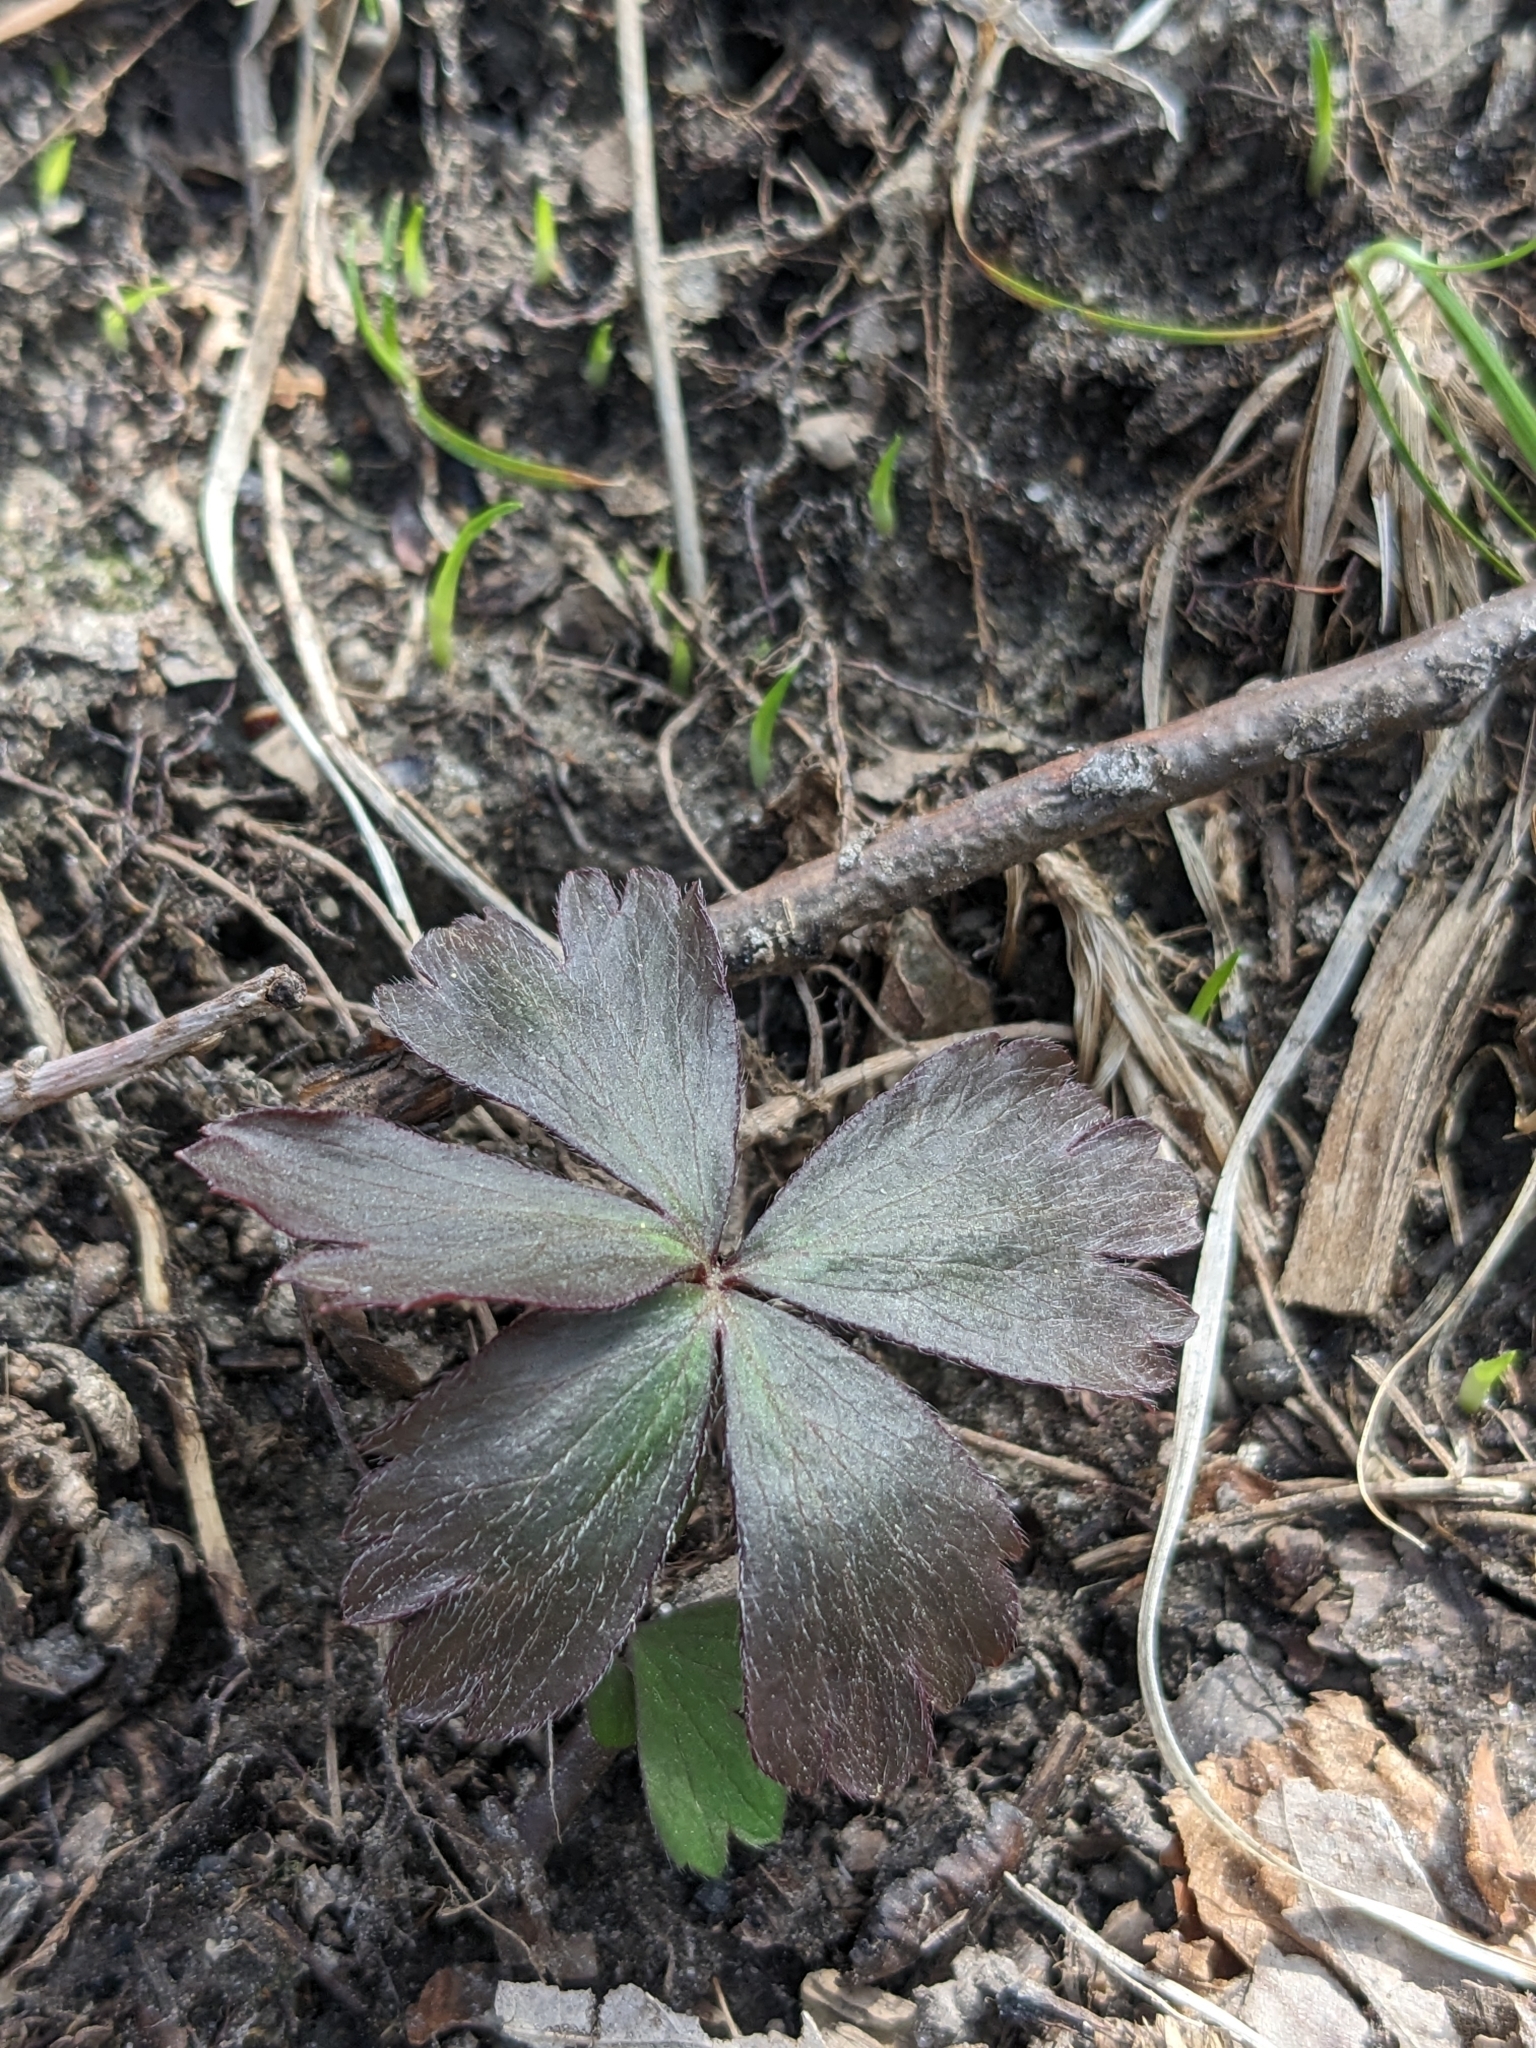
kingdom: Plantae
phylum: Tracheophyta
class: Magnoliopsida
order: Ranunculales
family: Ranunculaceae
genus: Anemone
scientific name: Anemone quinquefolia
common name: Wood anemone
